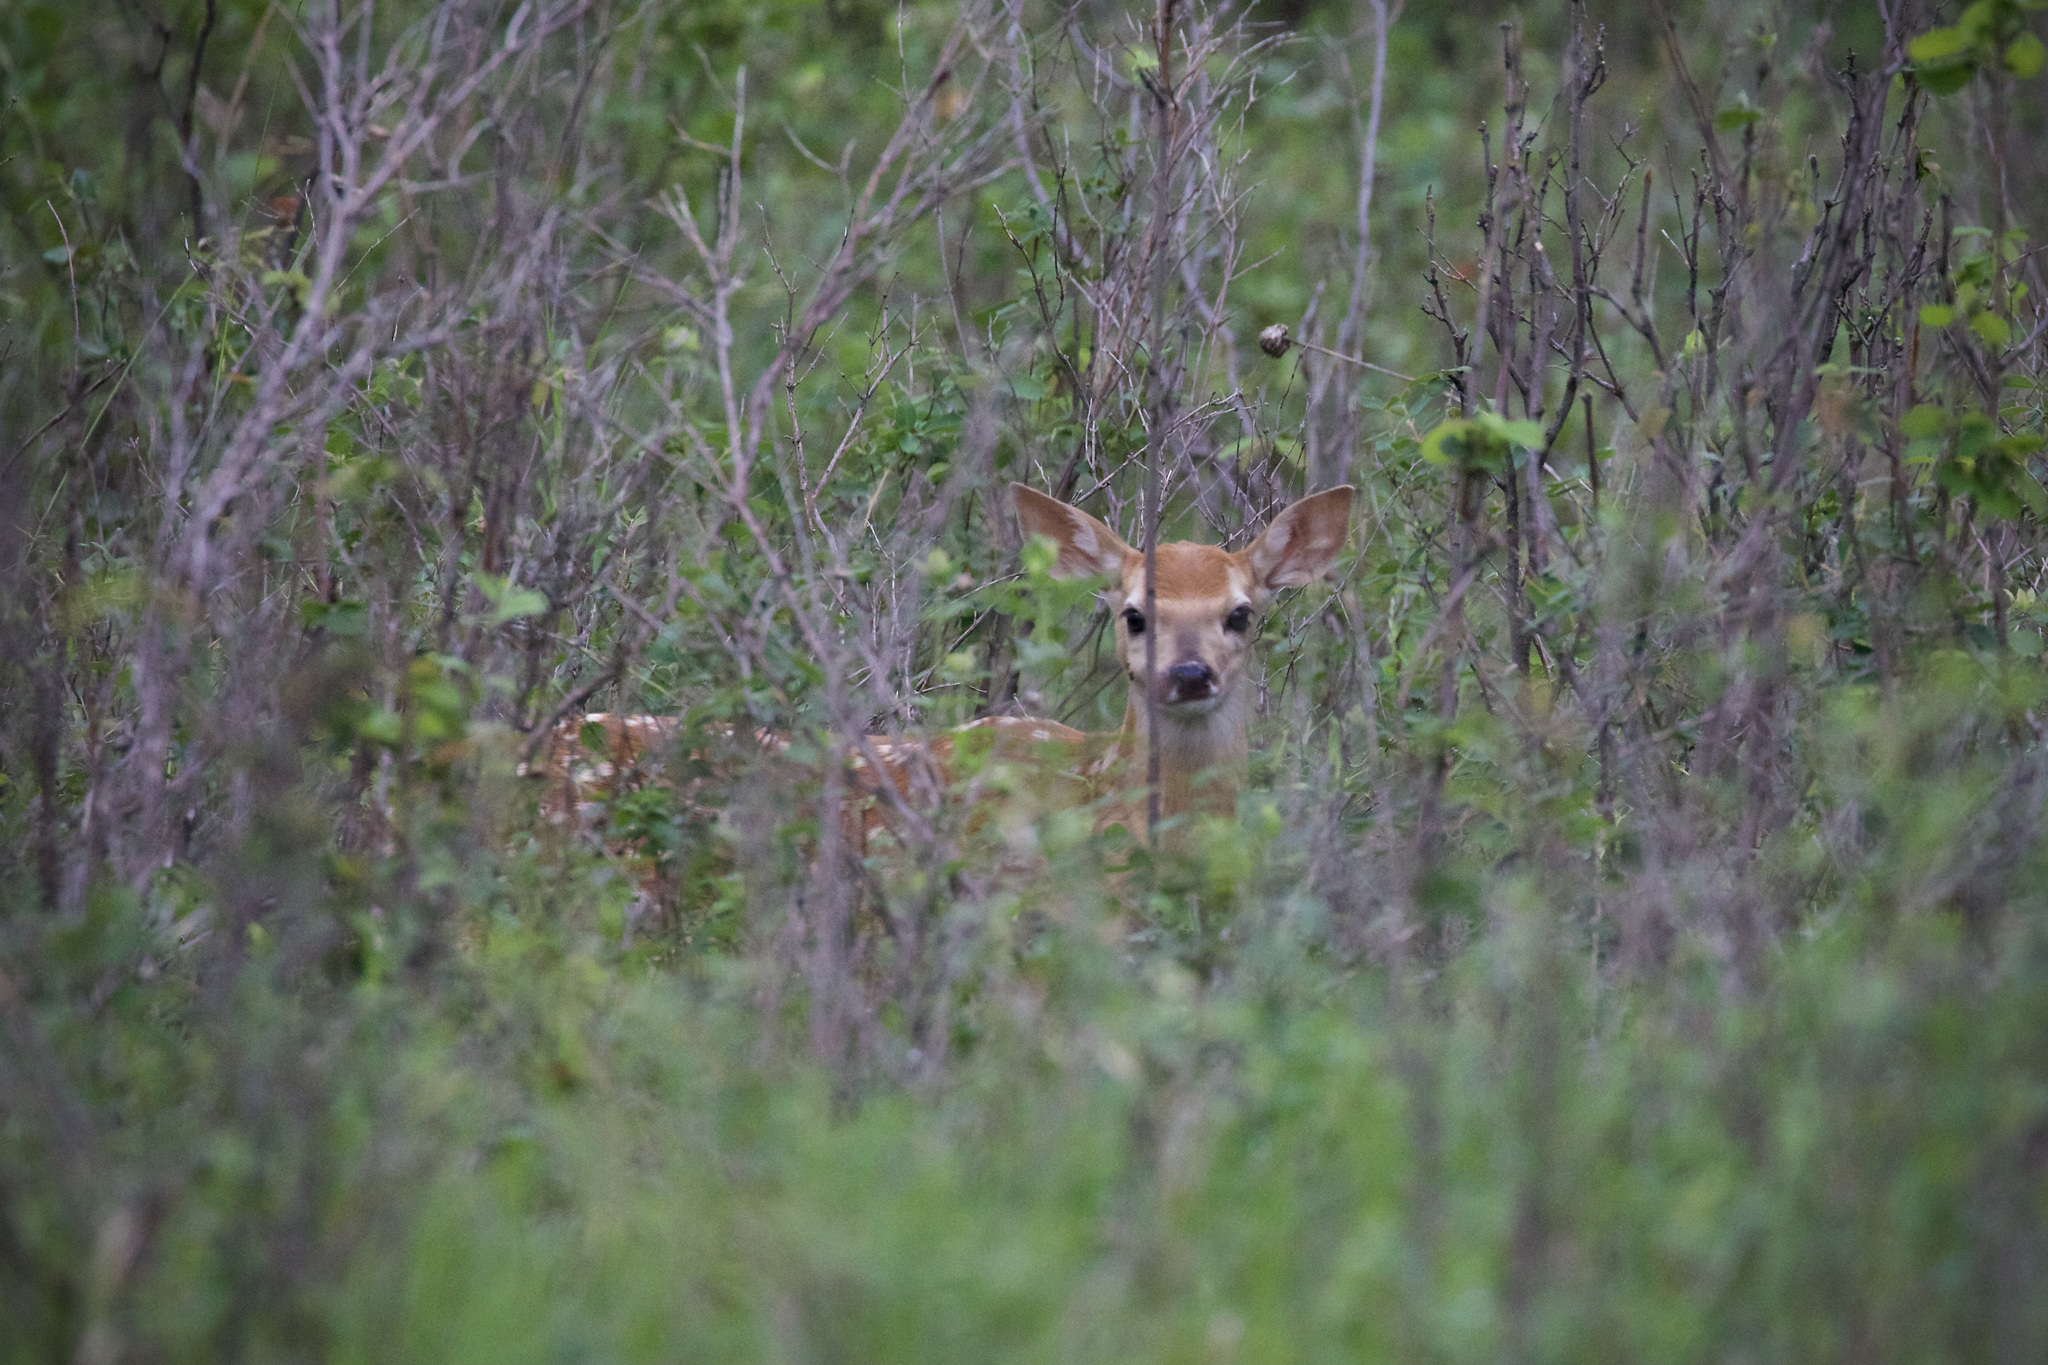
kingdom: Animalia
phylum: Chordata
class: Mammalia
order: Artiodactyla
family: Cervidae
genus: Odocoileus
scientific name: Odocoileus virginianus
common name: White-tailed deer
